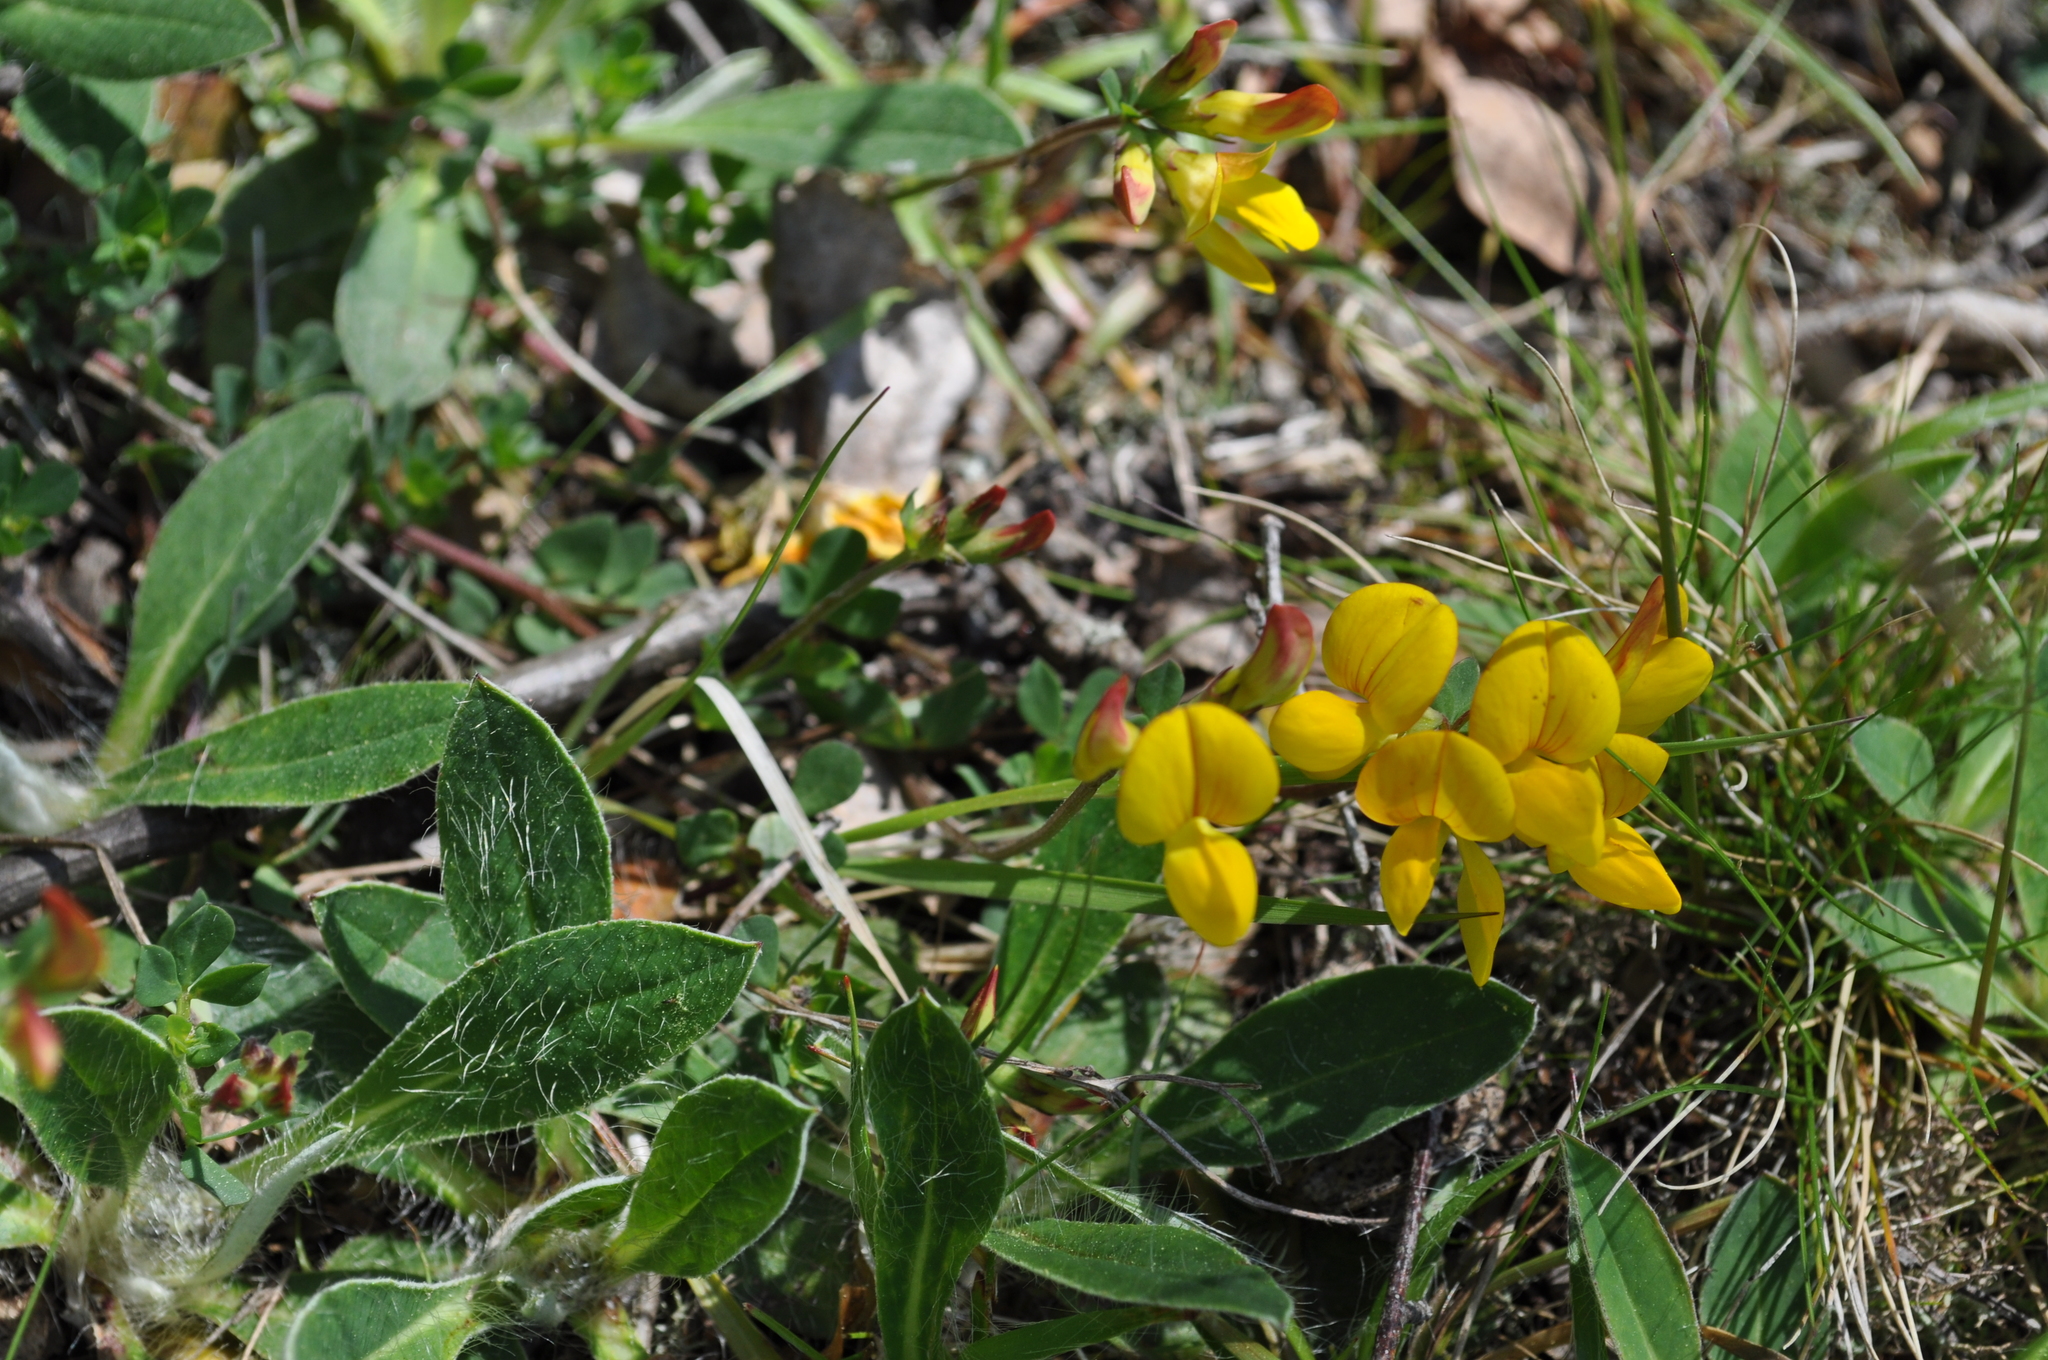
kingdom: Plantae
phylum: Tracheophyta
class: Magnoliopsida
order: Fabales
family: Fabaceae
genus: Lotus
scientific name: Lotus corniculatus
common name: Common bird's-foot-trefoil
